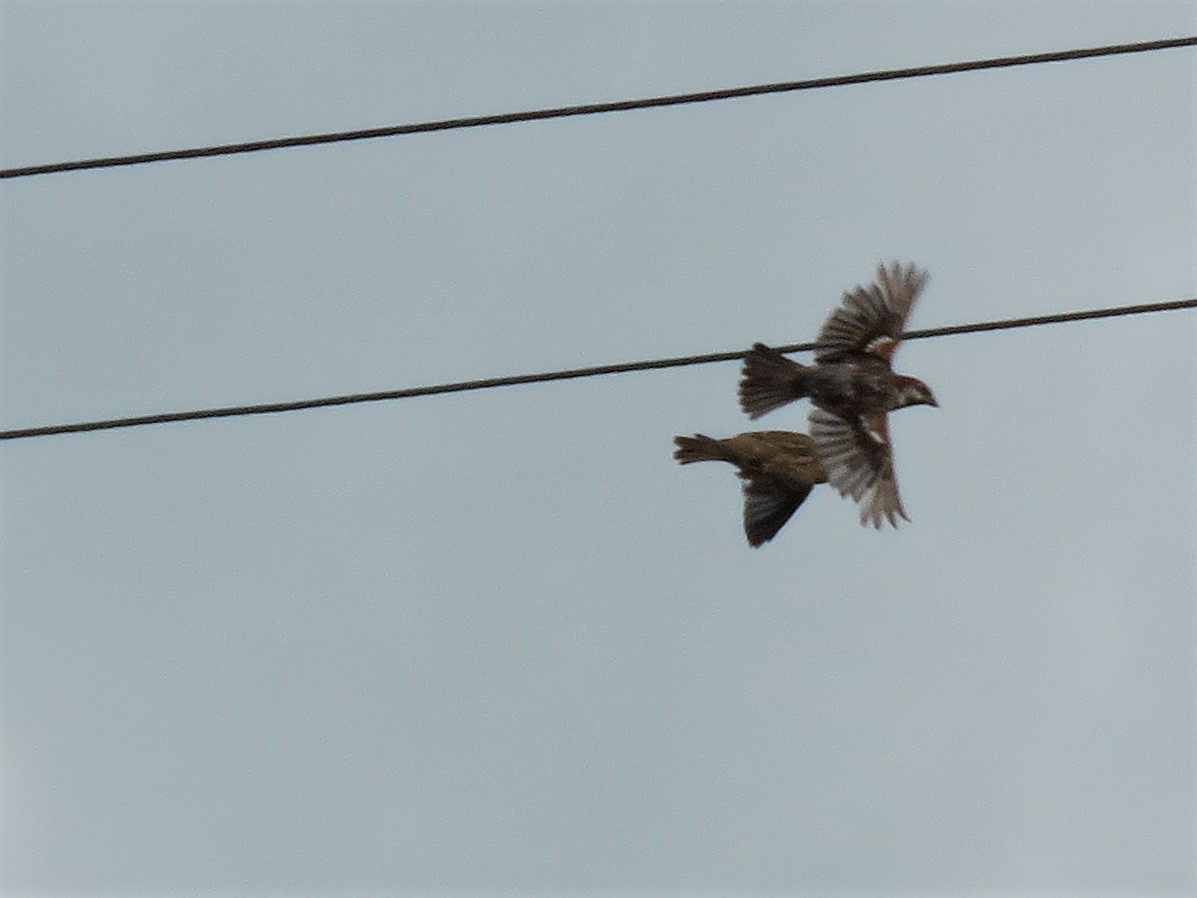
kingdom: Animalia
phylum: Chordata
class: Aves
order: Passeriformes
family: Passeridae
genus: Passer
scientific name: Passer domesticus
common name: House sparrow
